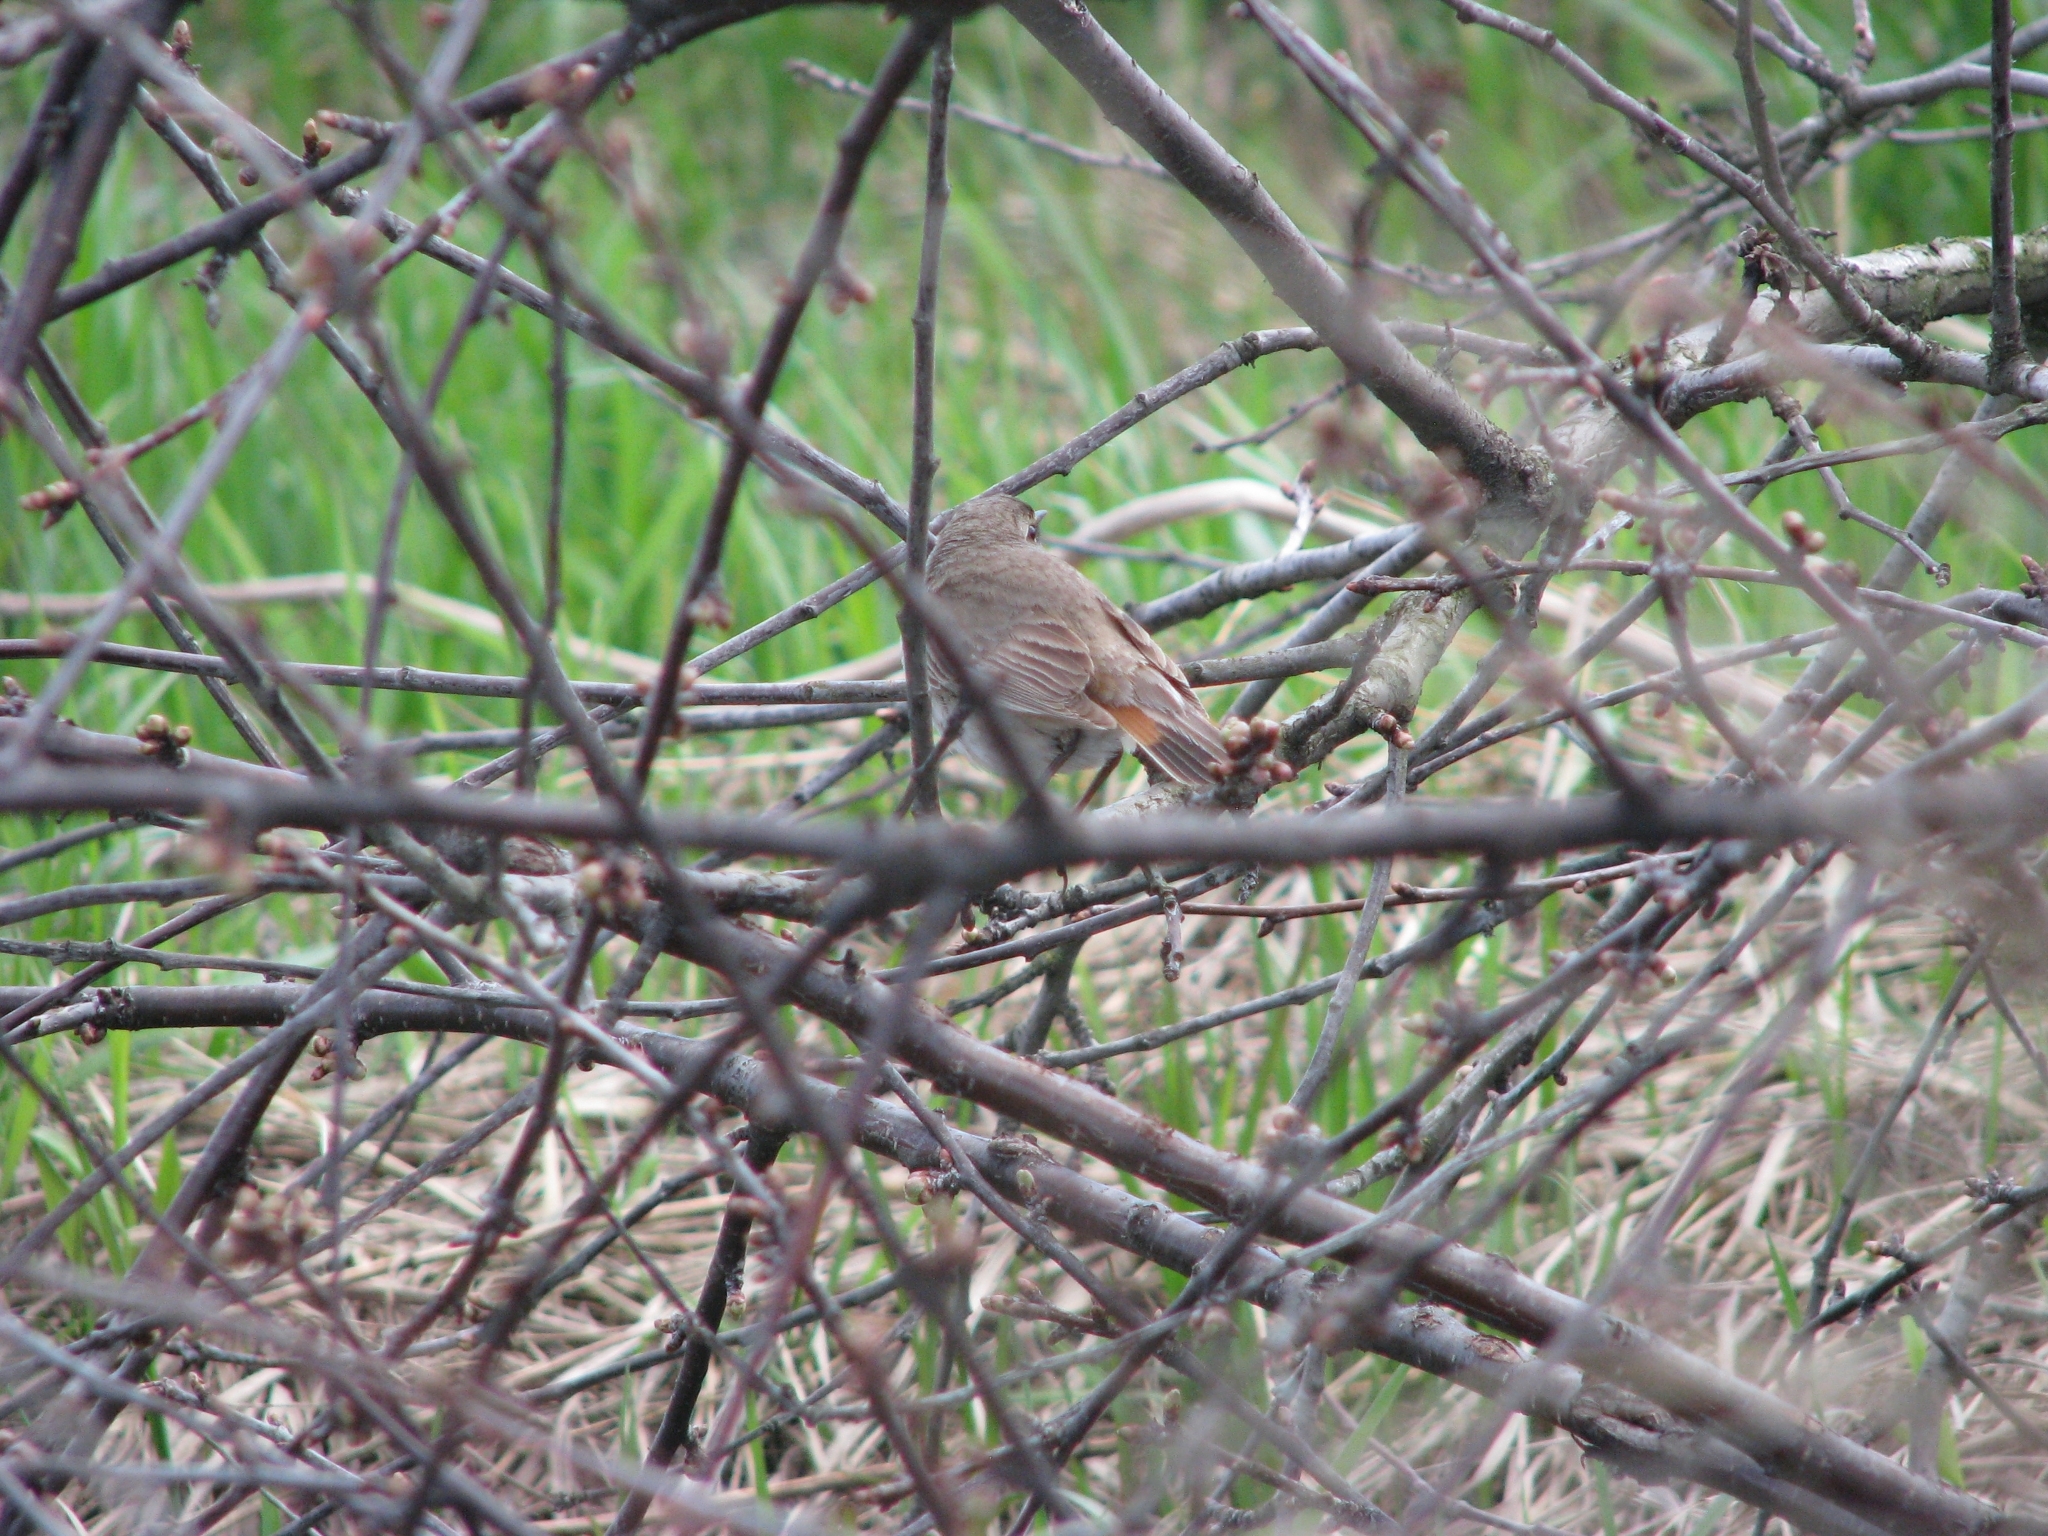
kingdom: Animalia
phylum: Chordata
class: Aves
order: Passeriformes
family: Muscicapidae
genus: Luscinia
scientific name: Luscinia svecica
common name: Bluethroat
